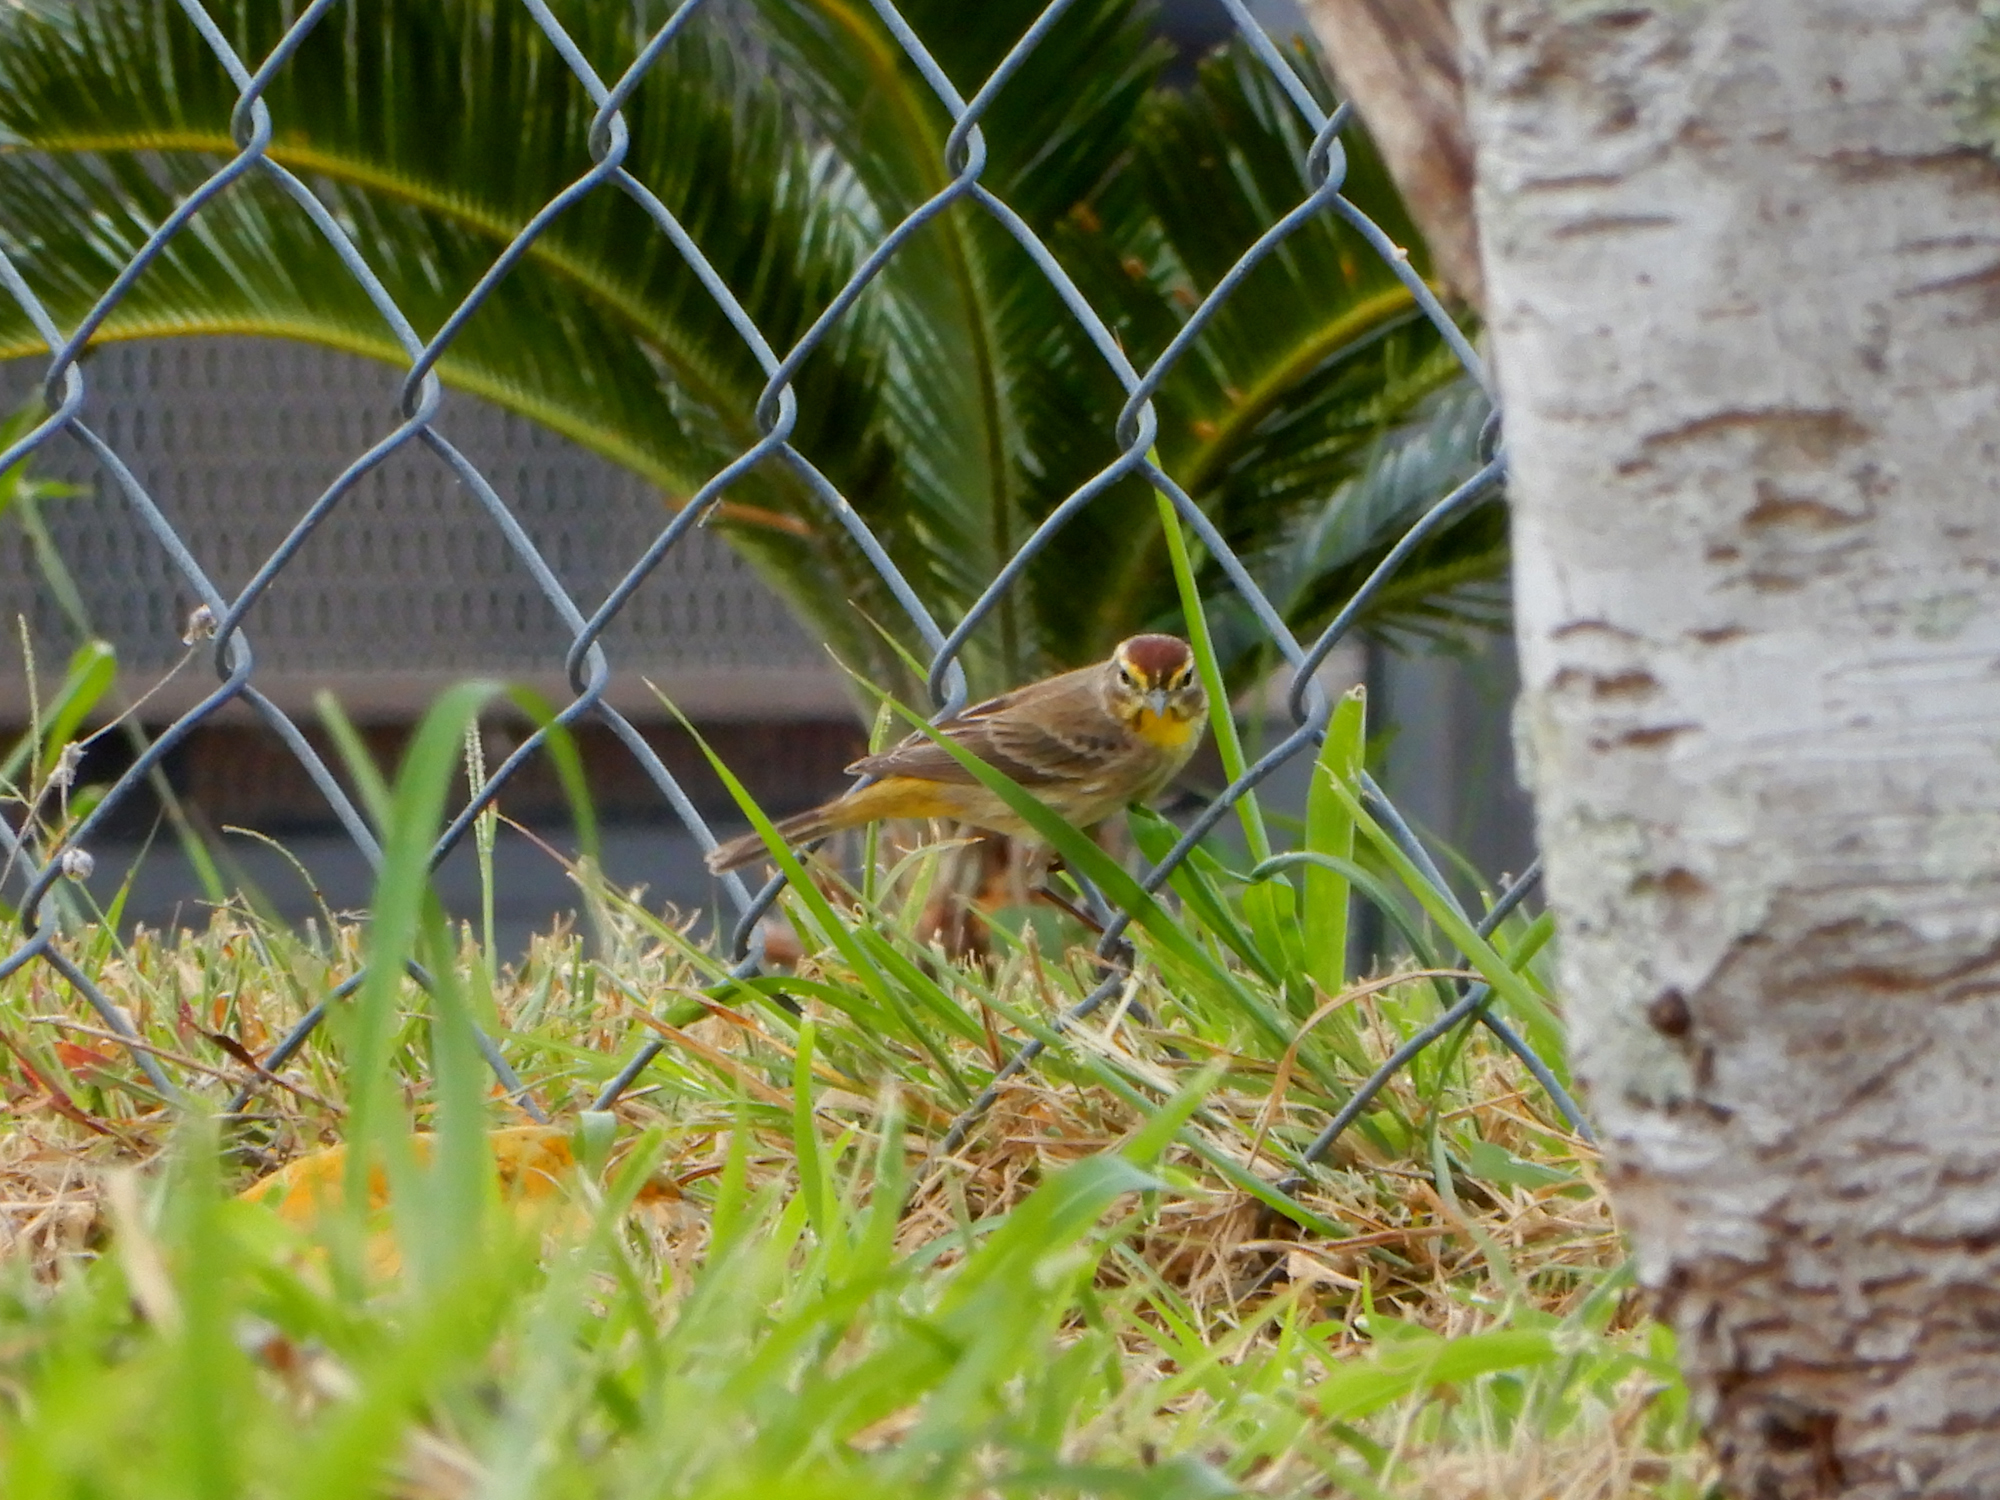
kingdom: Animalia
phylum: Chordata
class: Aves
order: Passeriformes
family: Parulidae
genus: Setophaga
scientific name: Setophaga palmarum
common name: Palm warbler
